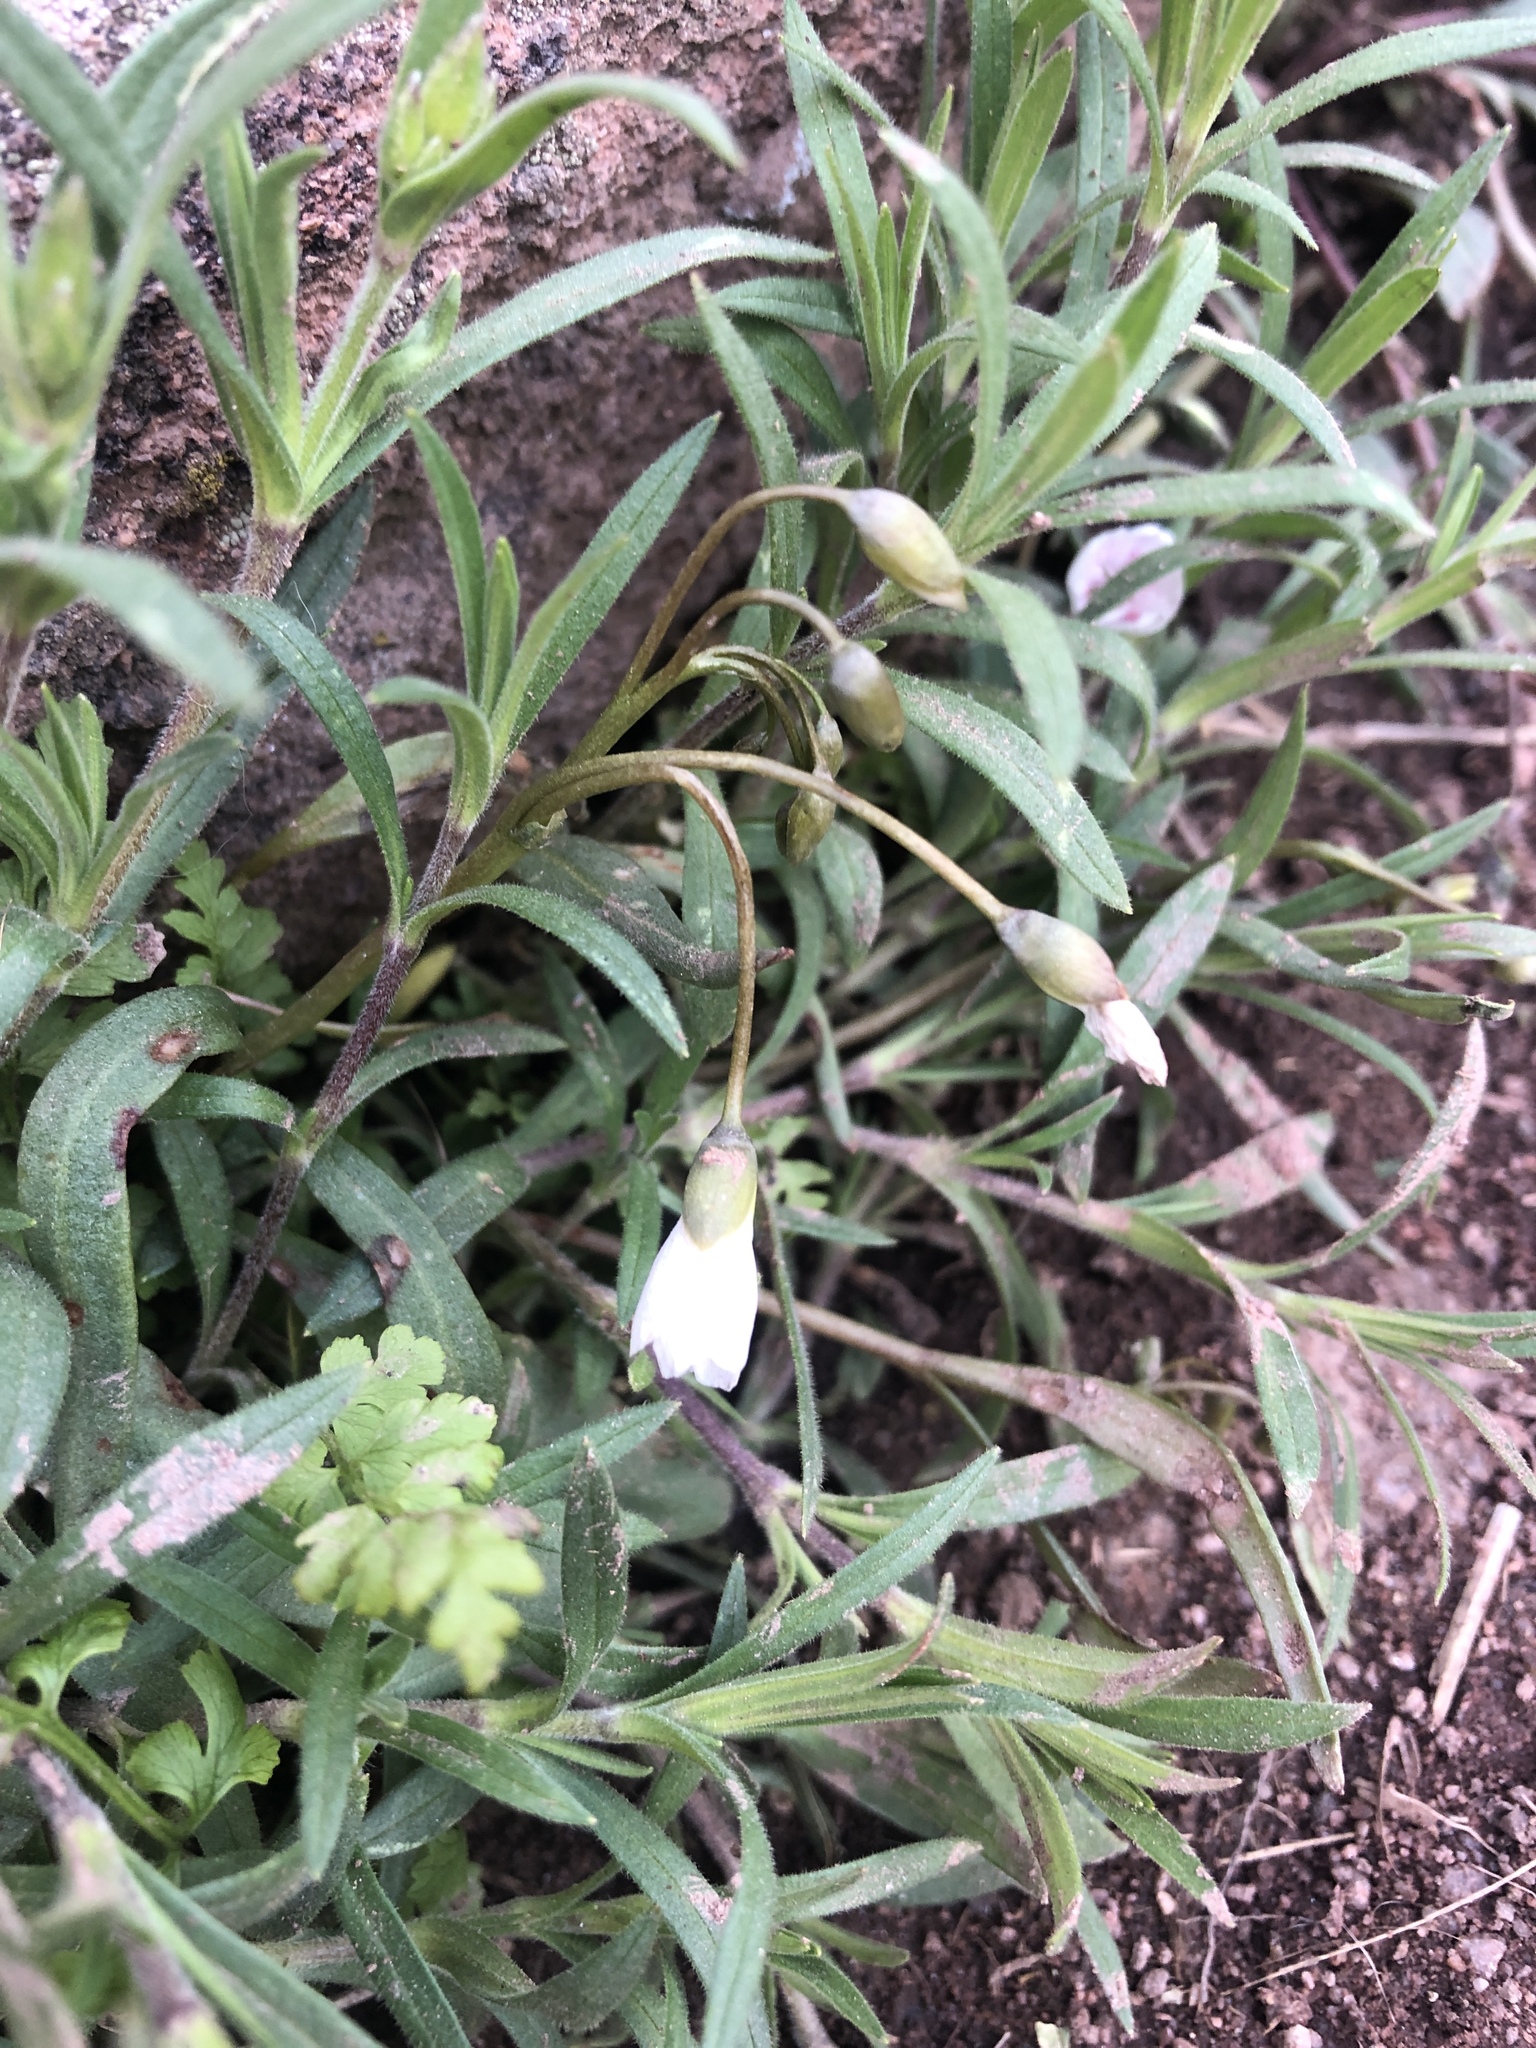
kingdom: Plantae
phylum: Tracheophyta
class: Magnoliopsida
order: Caryophyllales
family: Montiaceae
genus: Claytonia
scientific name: Claytonia rosea
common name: Rocky mountain spring-beauty
